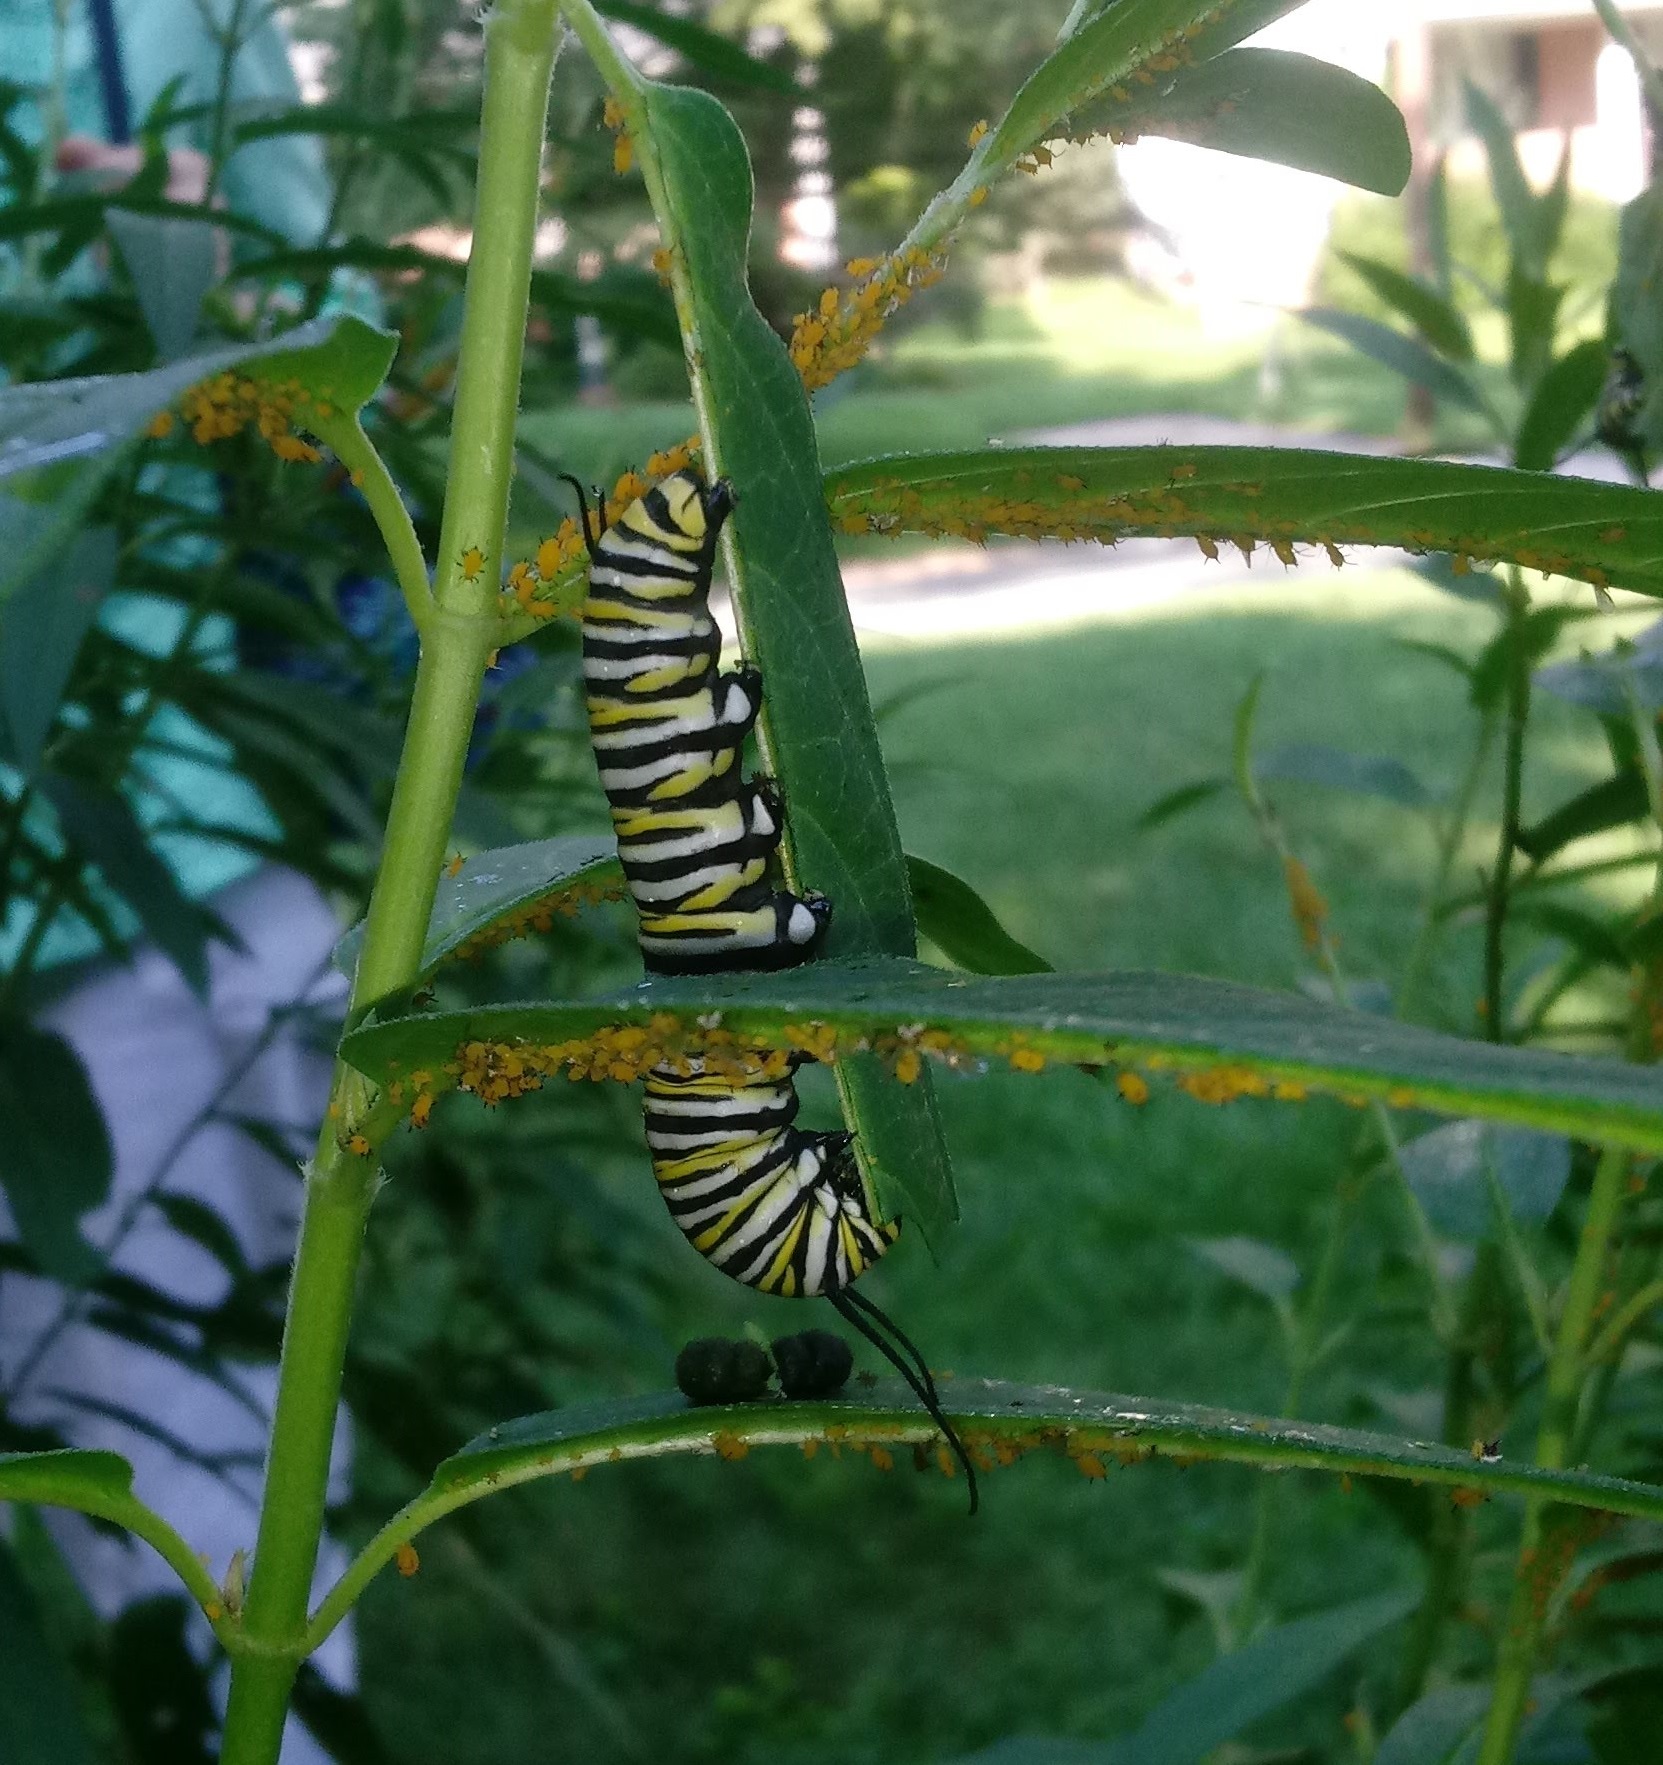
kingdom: Animalia
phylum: Arthropoda
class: Insecta
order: Lepidoptera
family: Nymphalidae
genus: Danaus
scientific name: Danaus plexippus
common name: Monarch
